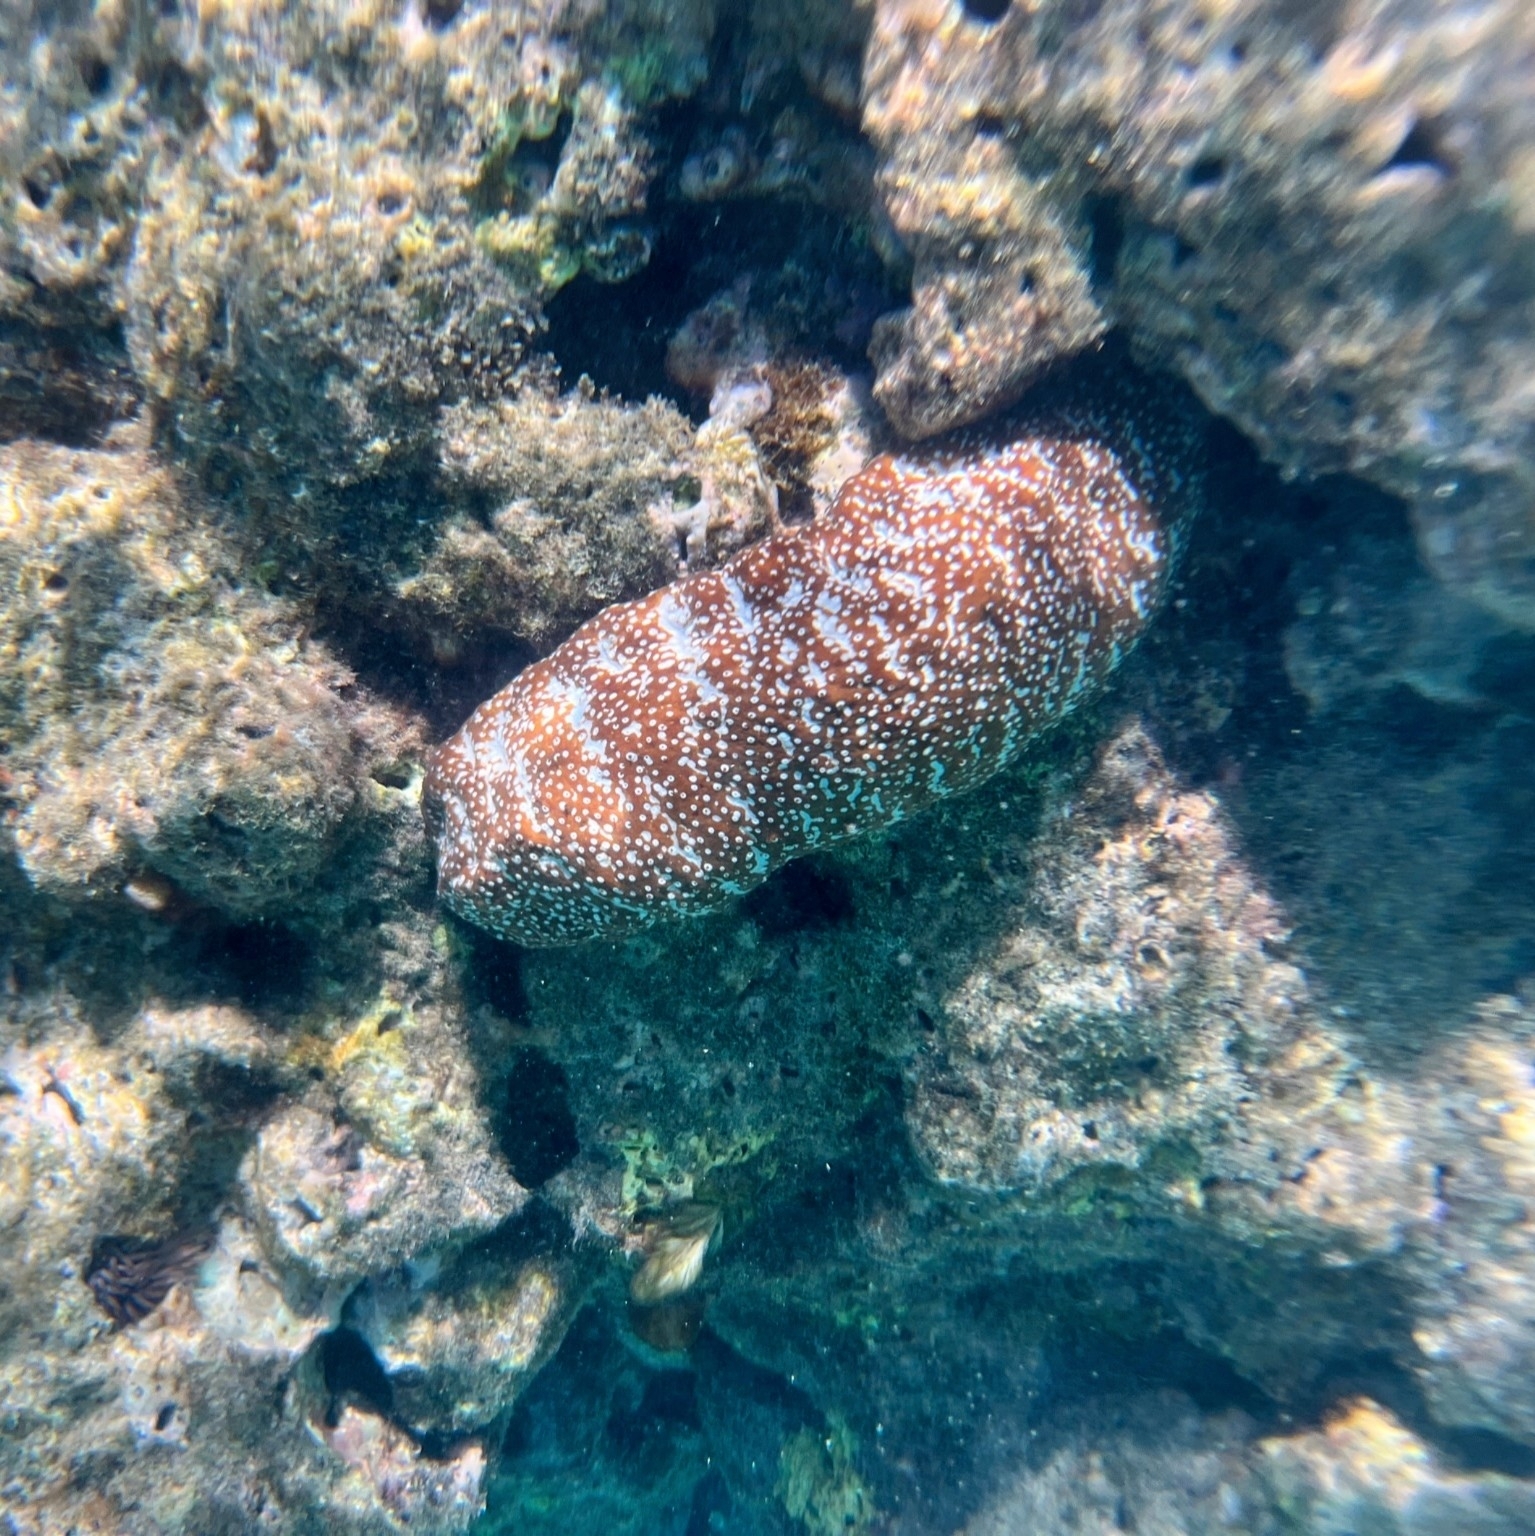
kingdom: Animalia
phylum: Echinodermata
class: Holothuroidea
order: Holothuriida
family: Holothuriidae
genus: Actinopyga
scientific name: Actinopyga varians
